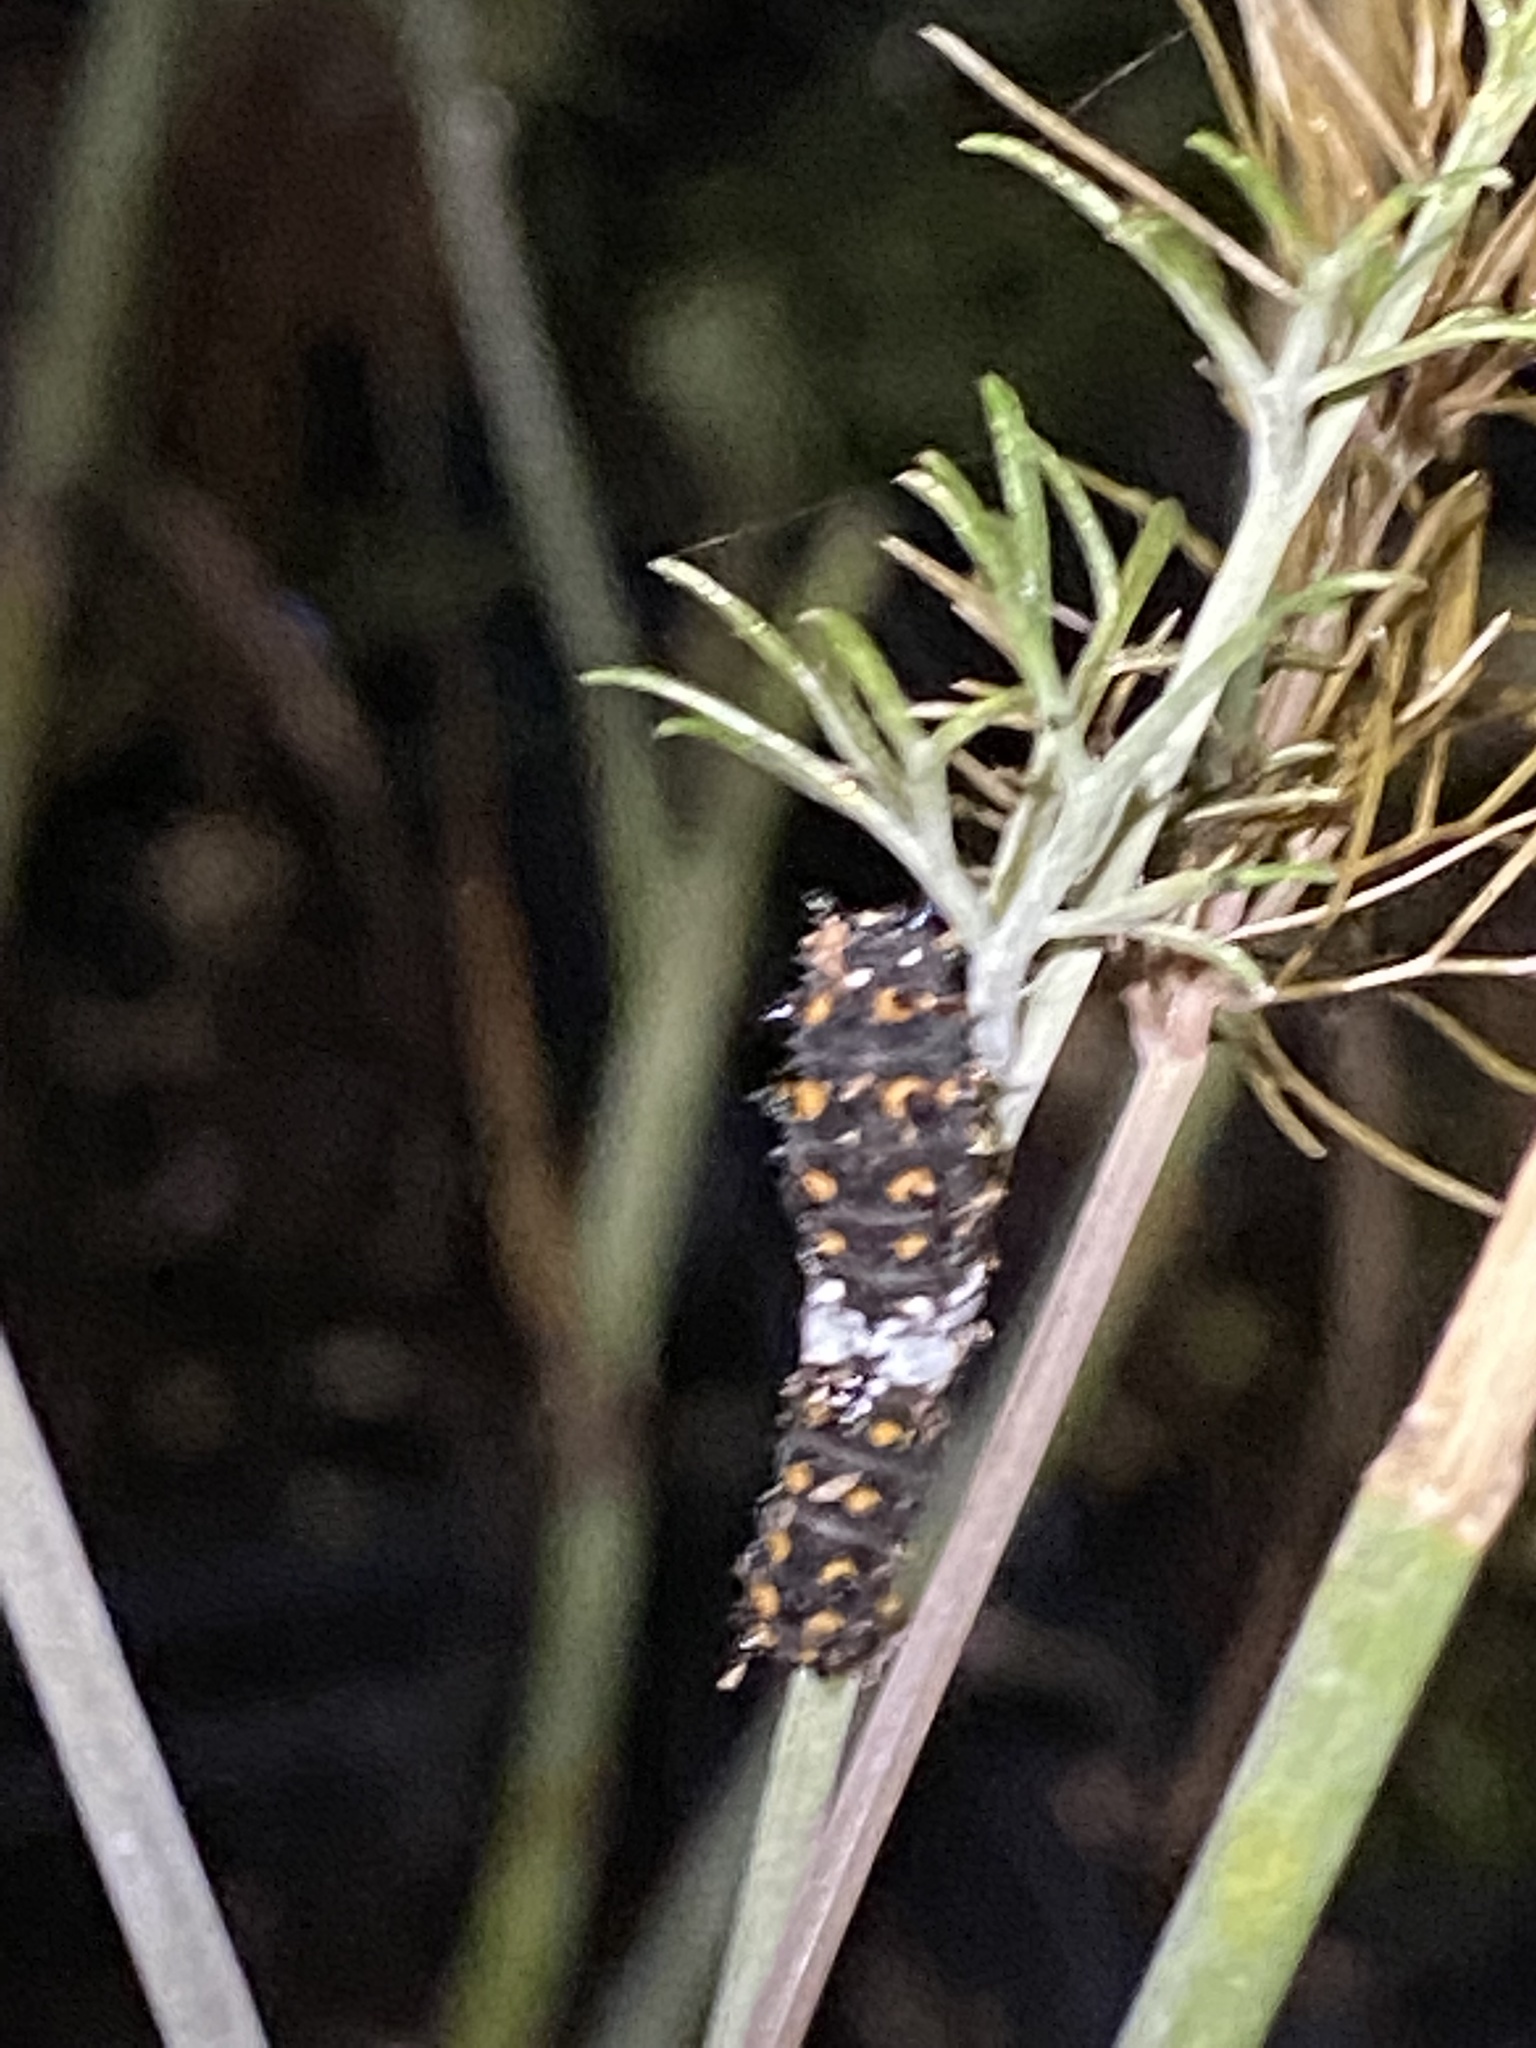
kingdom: Animalia
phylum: Arthropoda
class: Insecta
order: Lepidoptera
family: Papilionidae
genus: Papilio
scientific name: Papilio polyxenes
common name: Black swallowtail
